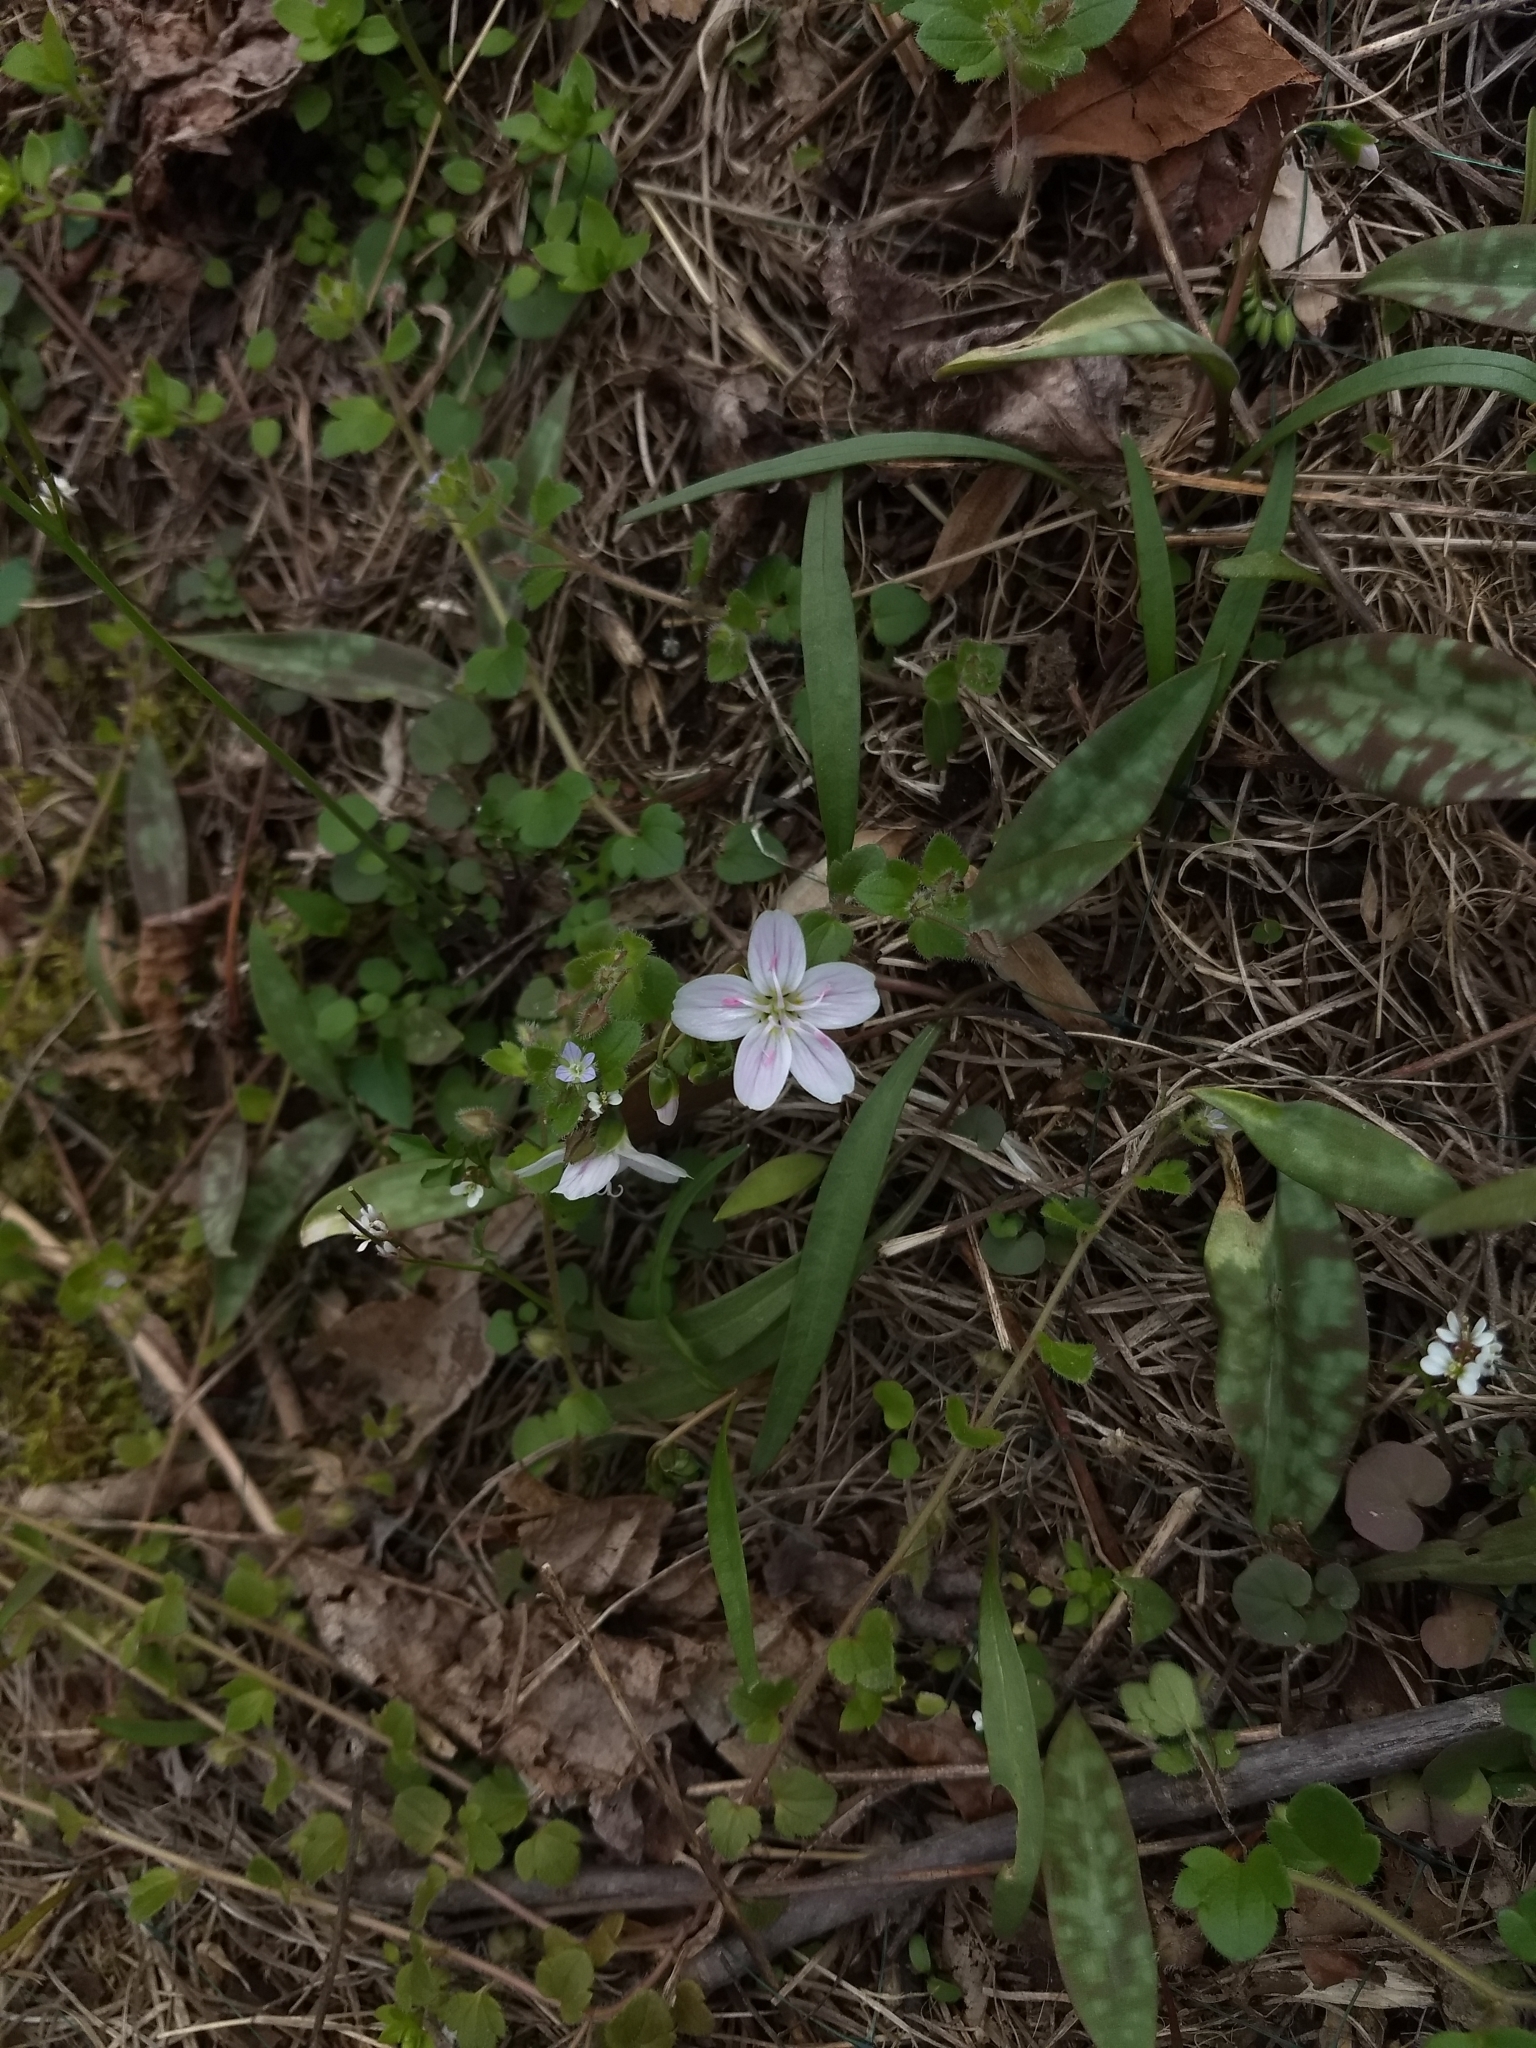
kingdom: Plantae
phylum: Tracheophyta
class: Magnoliopsida
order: Caryophyllales
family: Montiaceae
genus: Claytonia
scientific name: Claytonia virginica
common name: Virginia springbeauty
